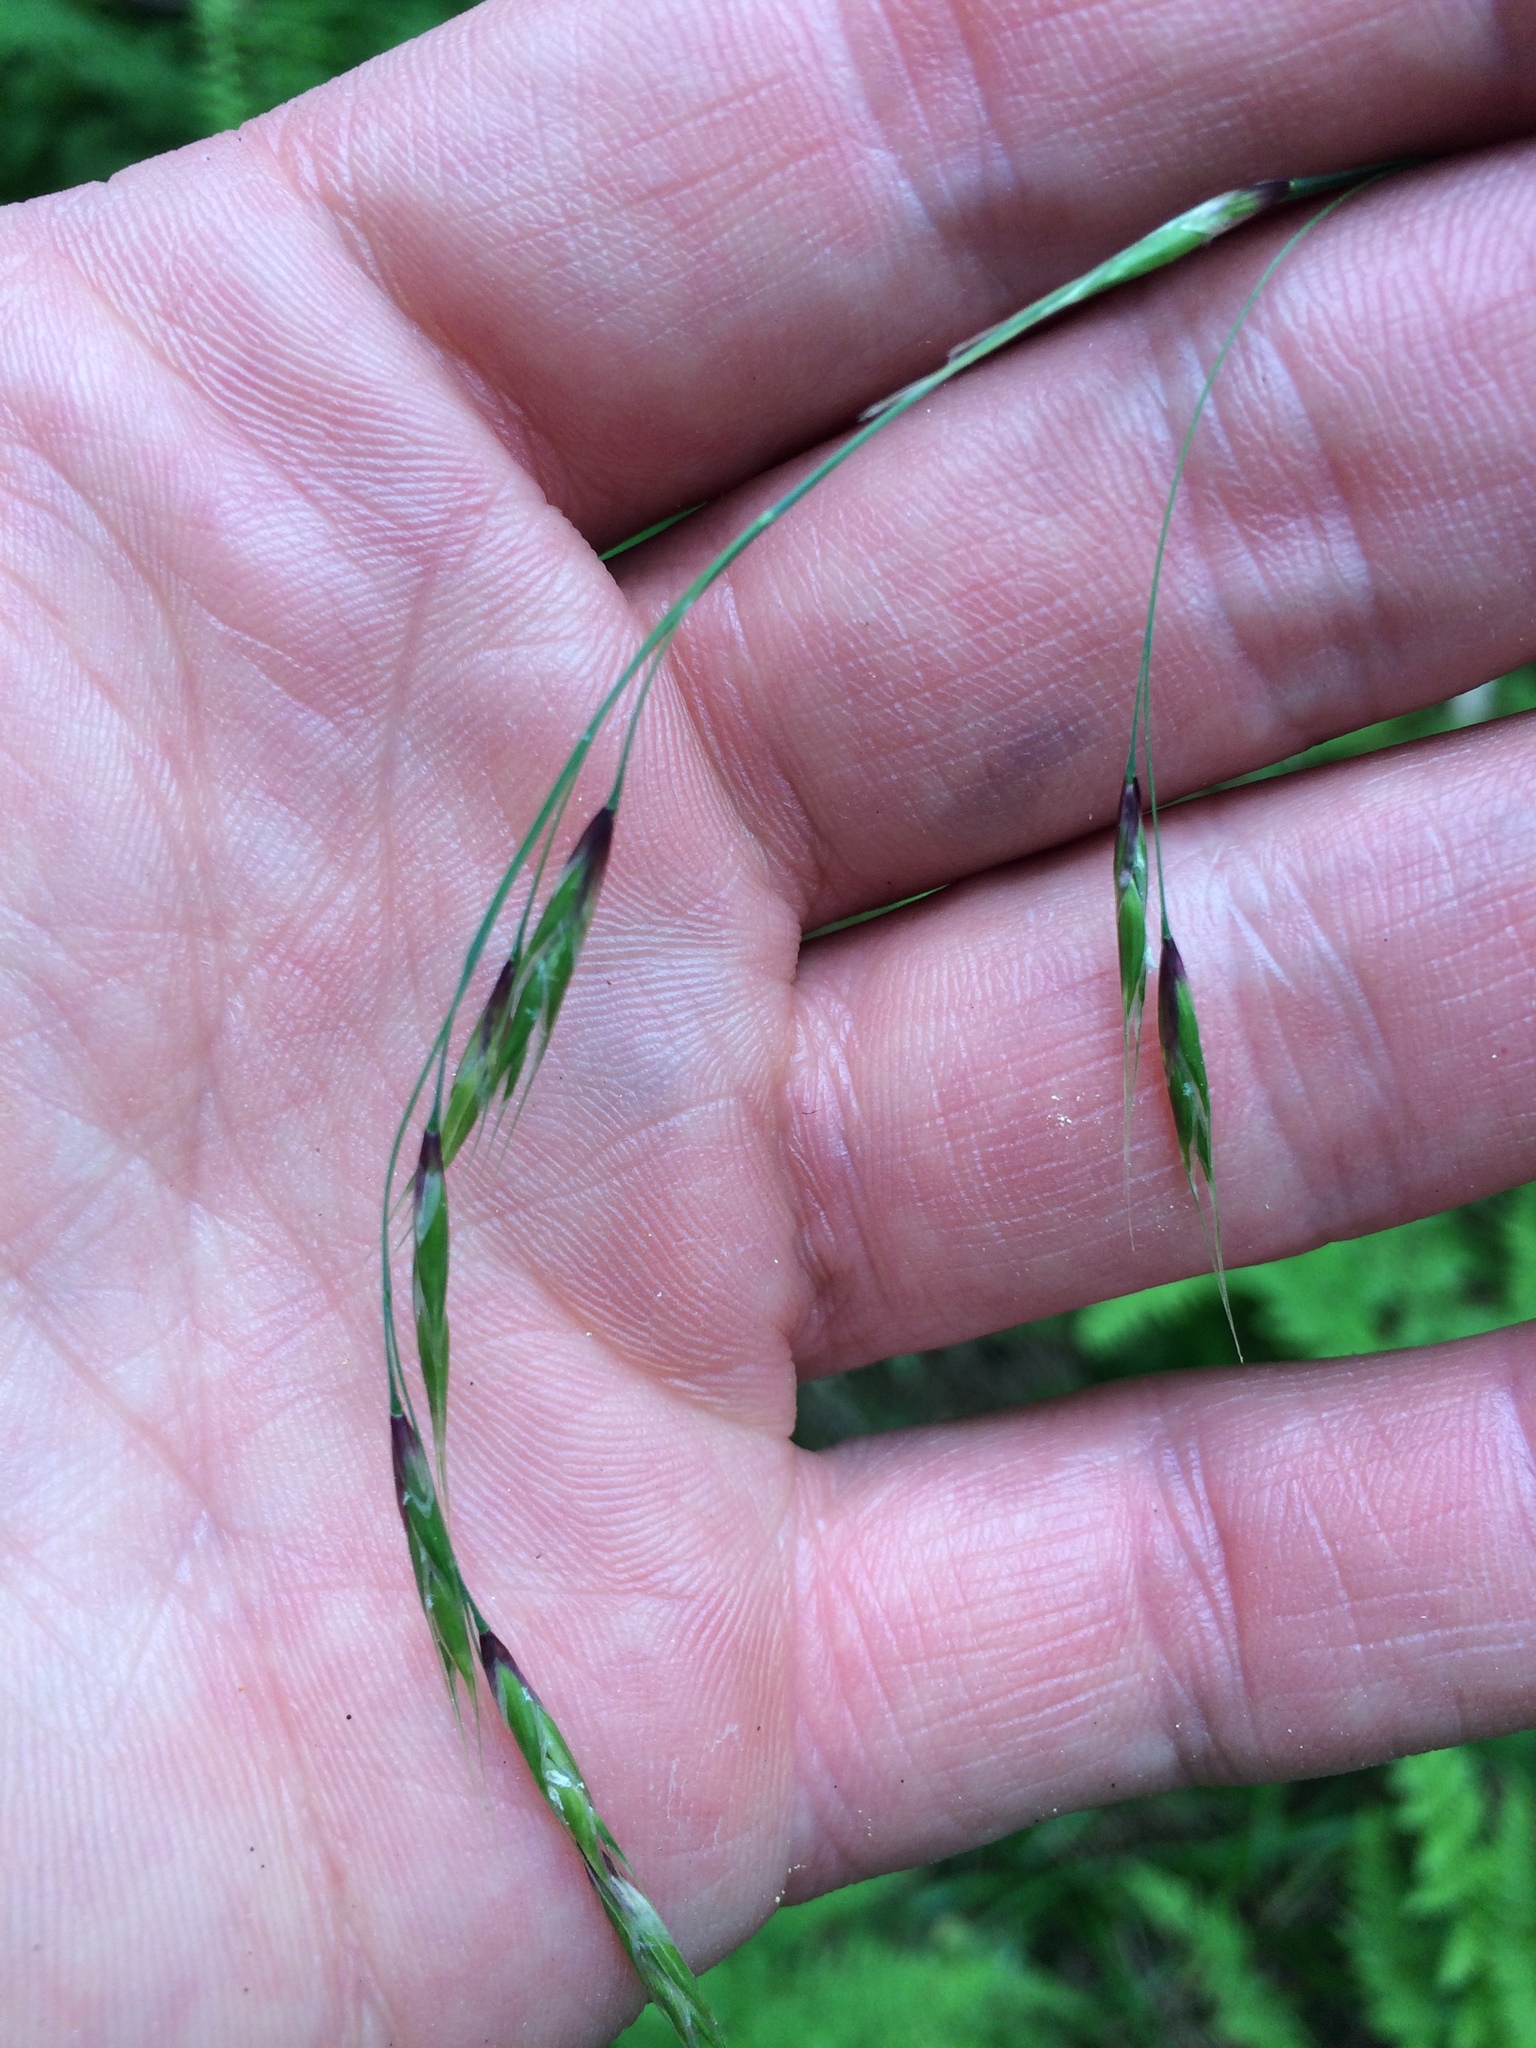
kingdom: Plantae
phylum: Tracheophyta
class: Liliopsida
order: Poales
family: Poaceae
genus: Schizachne
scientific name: Schizachne purpurascens
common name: False melic
